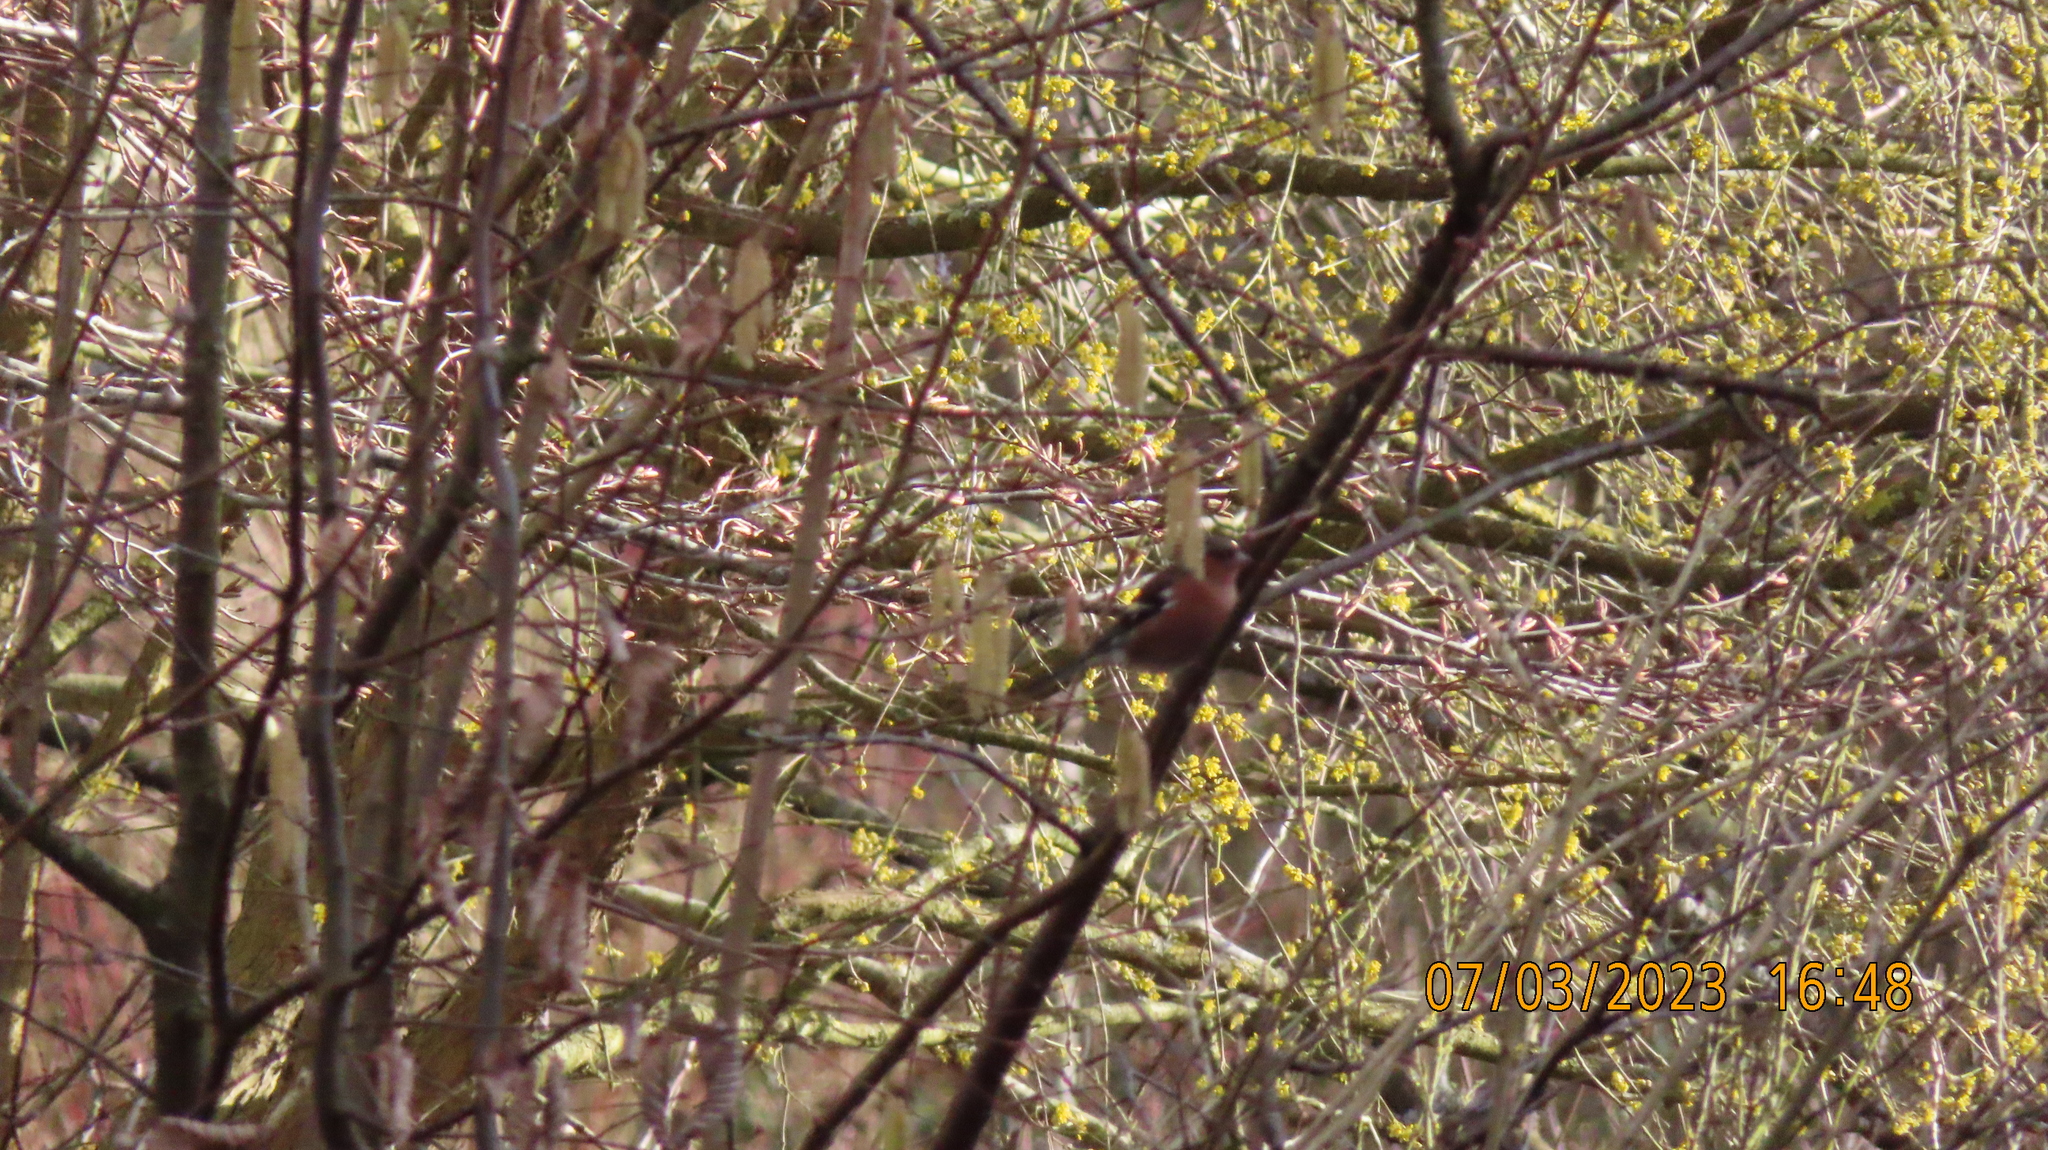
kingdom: Animalia
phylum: Chordata
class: Aves
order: Passeriformes
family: Fringillidae
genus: Fringilla
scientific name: Fringilla coelebs
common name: Common chaffinch
